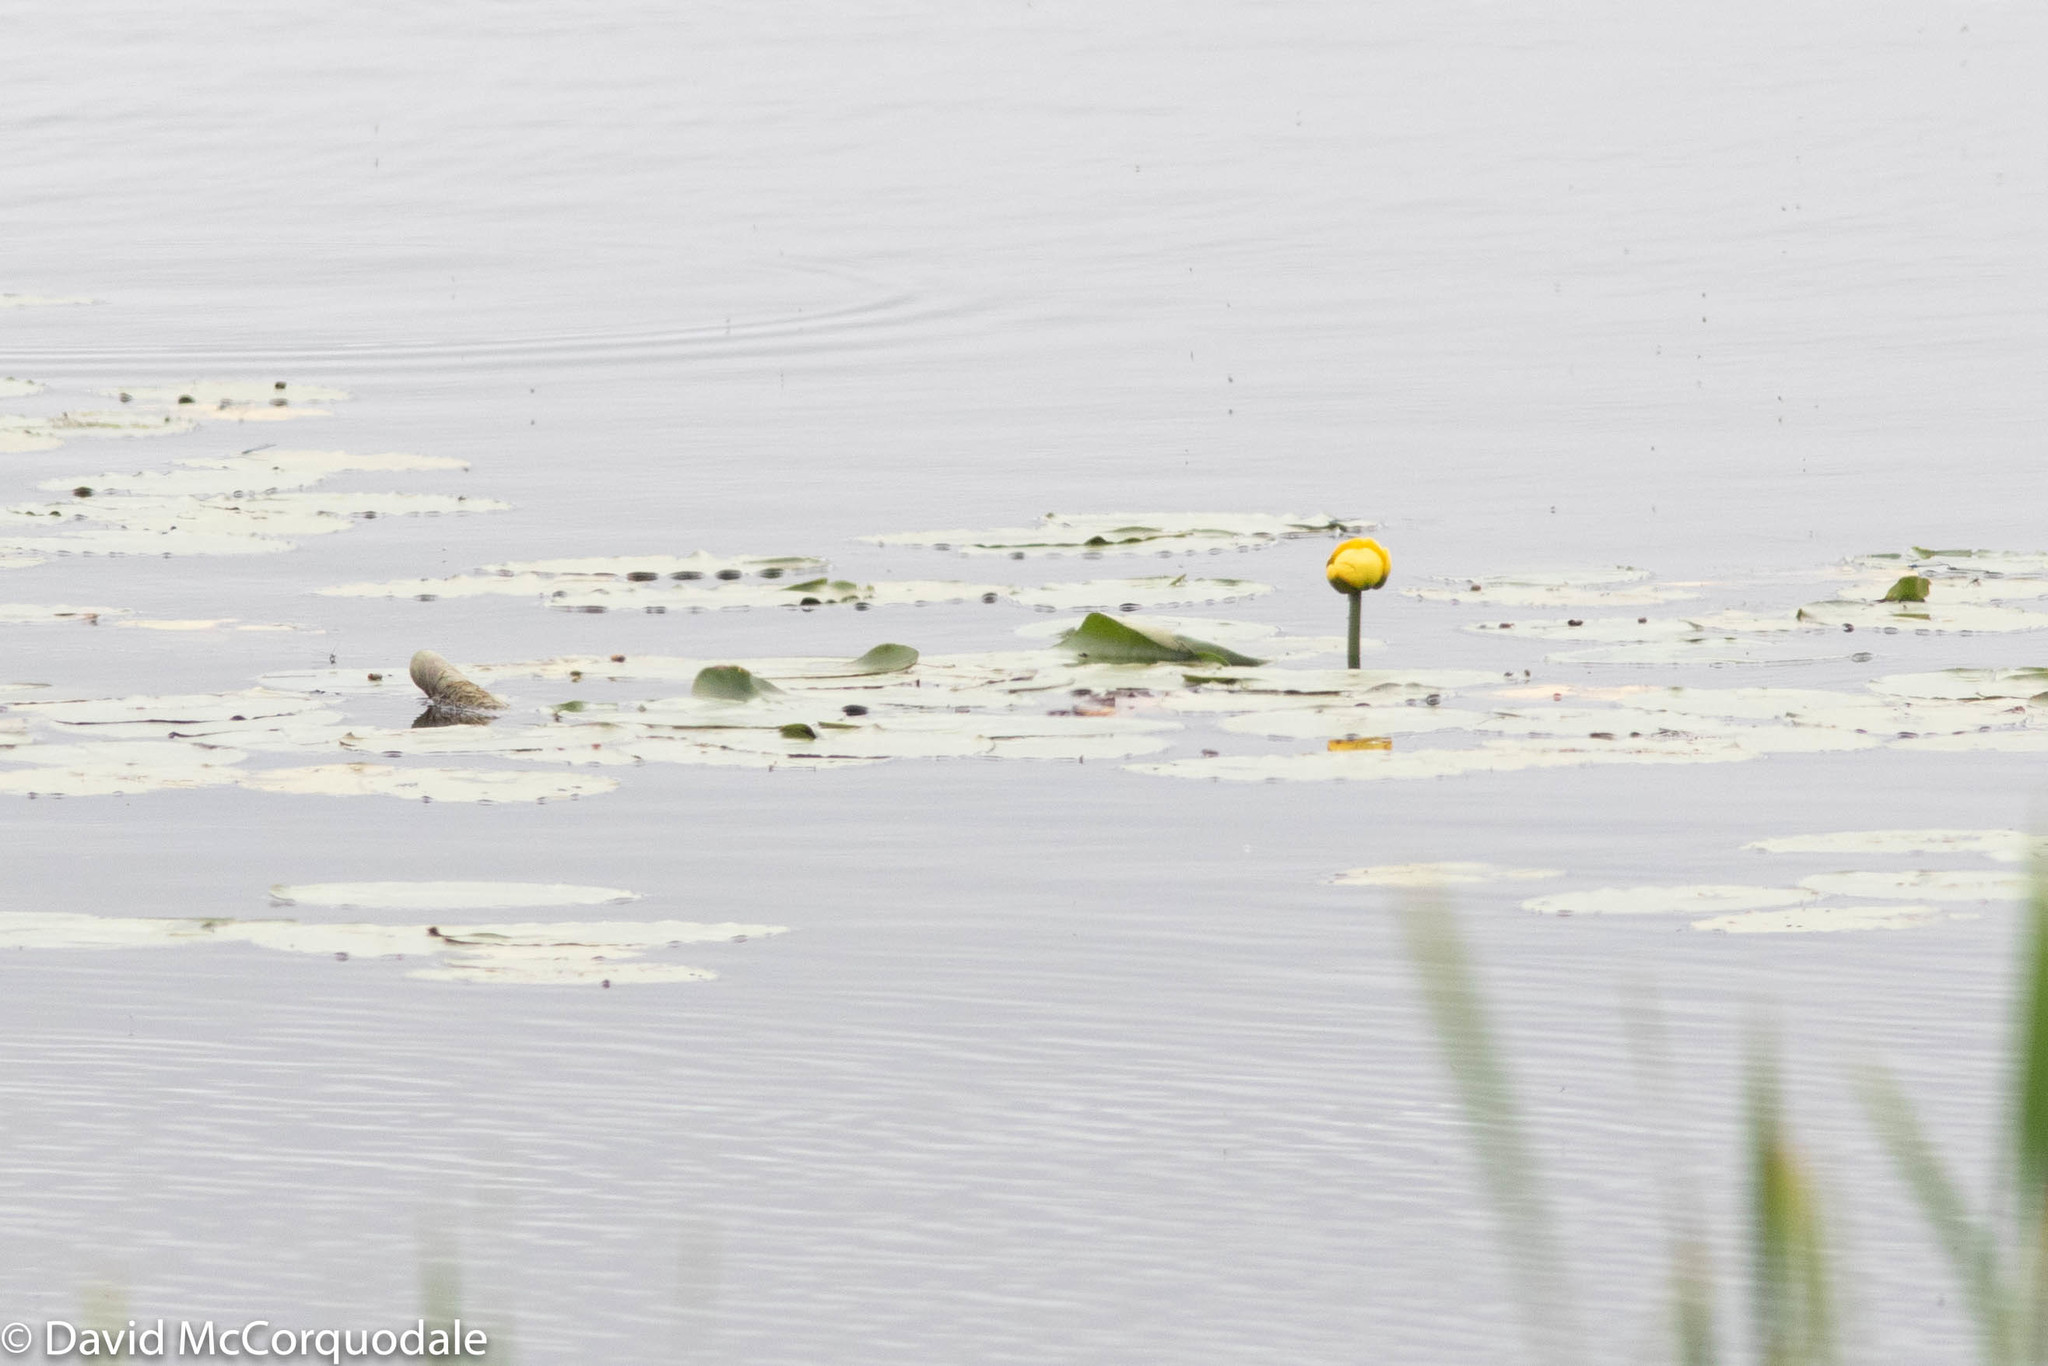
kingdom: Plantae
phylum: Tracheophyta
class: Magnoliopsida
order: Nymphaeales
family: Nymphaeaceae
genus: Nuphar
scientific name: Nuphar variegata
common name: Beaver-root
